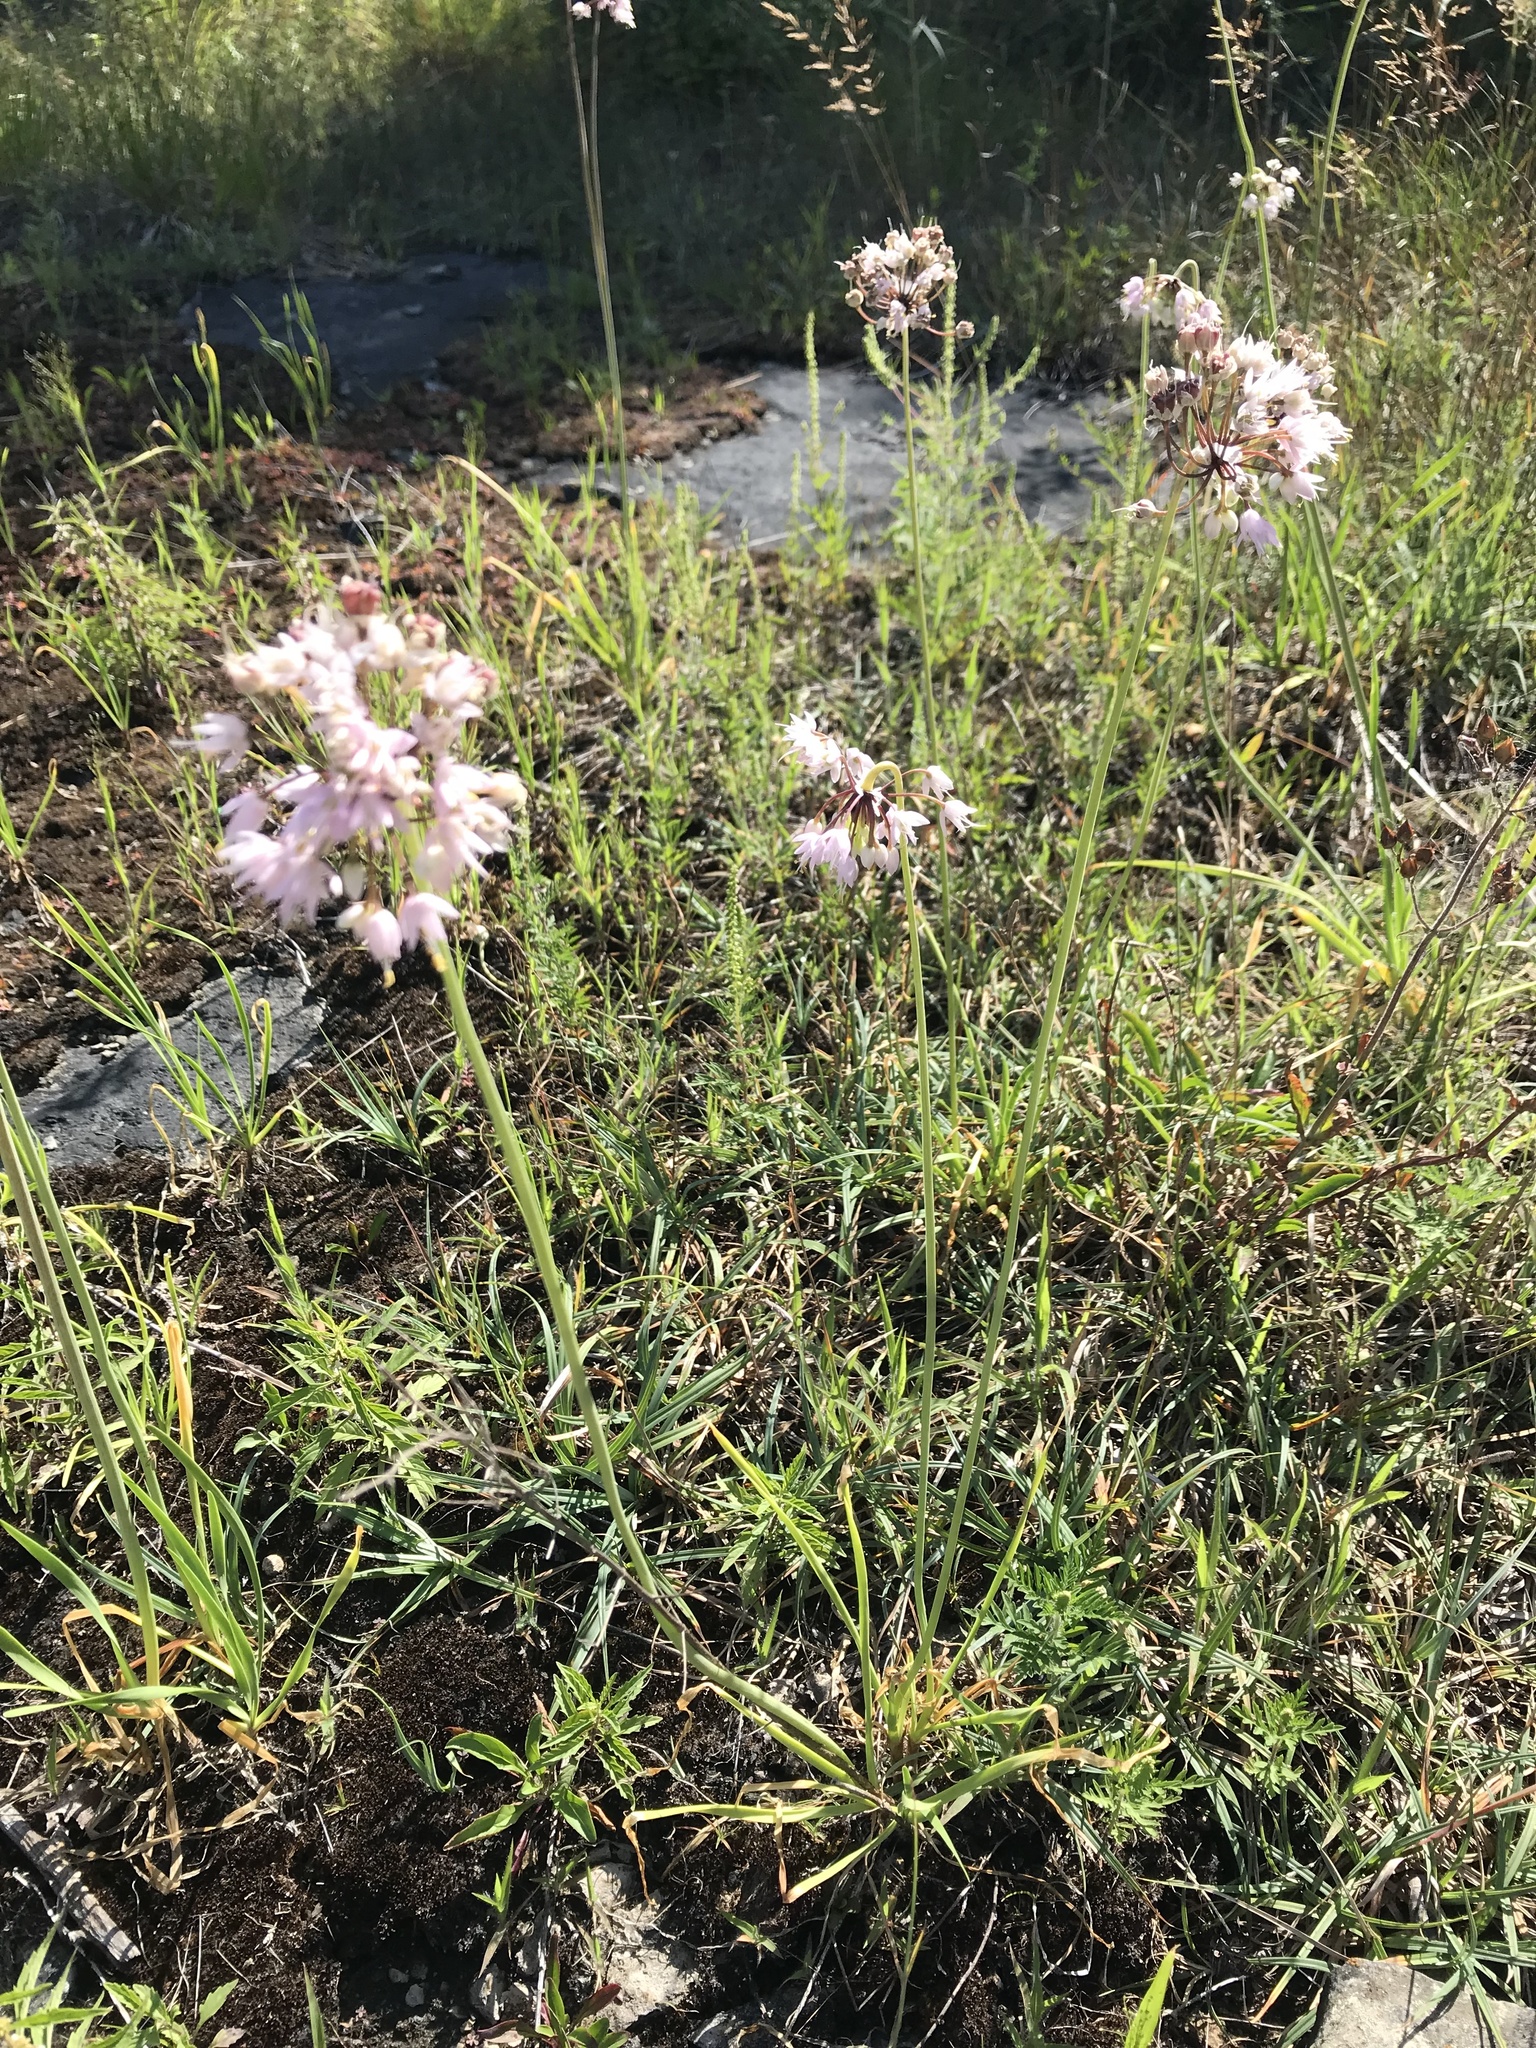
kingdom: Plantae
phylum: Tracheophyta
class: Liliopsida
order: Asparagales
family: Amaryllidaceae
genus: Allium
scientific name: Allium cernuum
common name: Nodding onion
